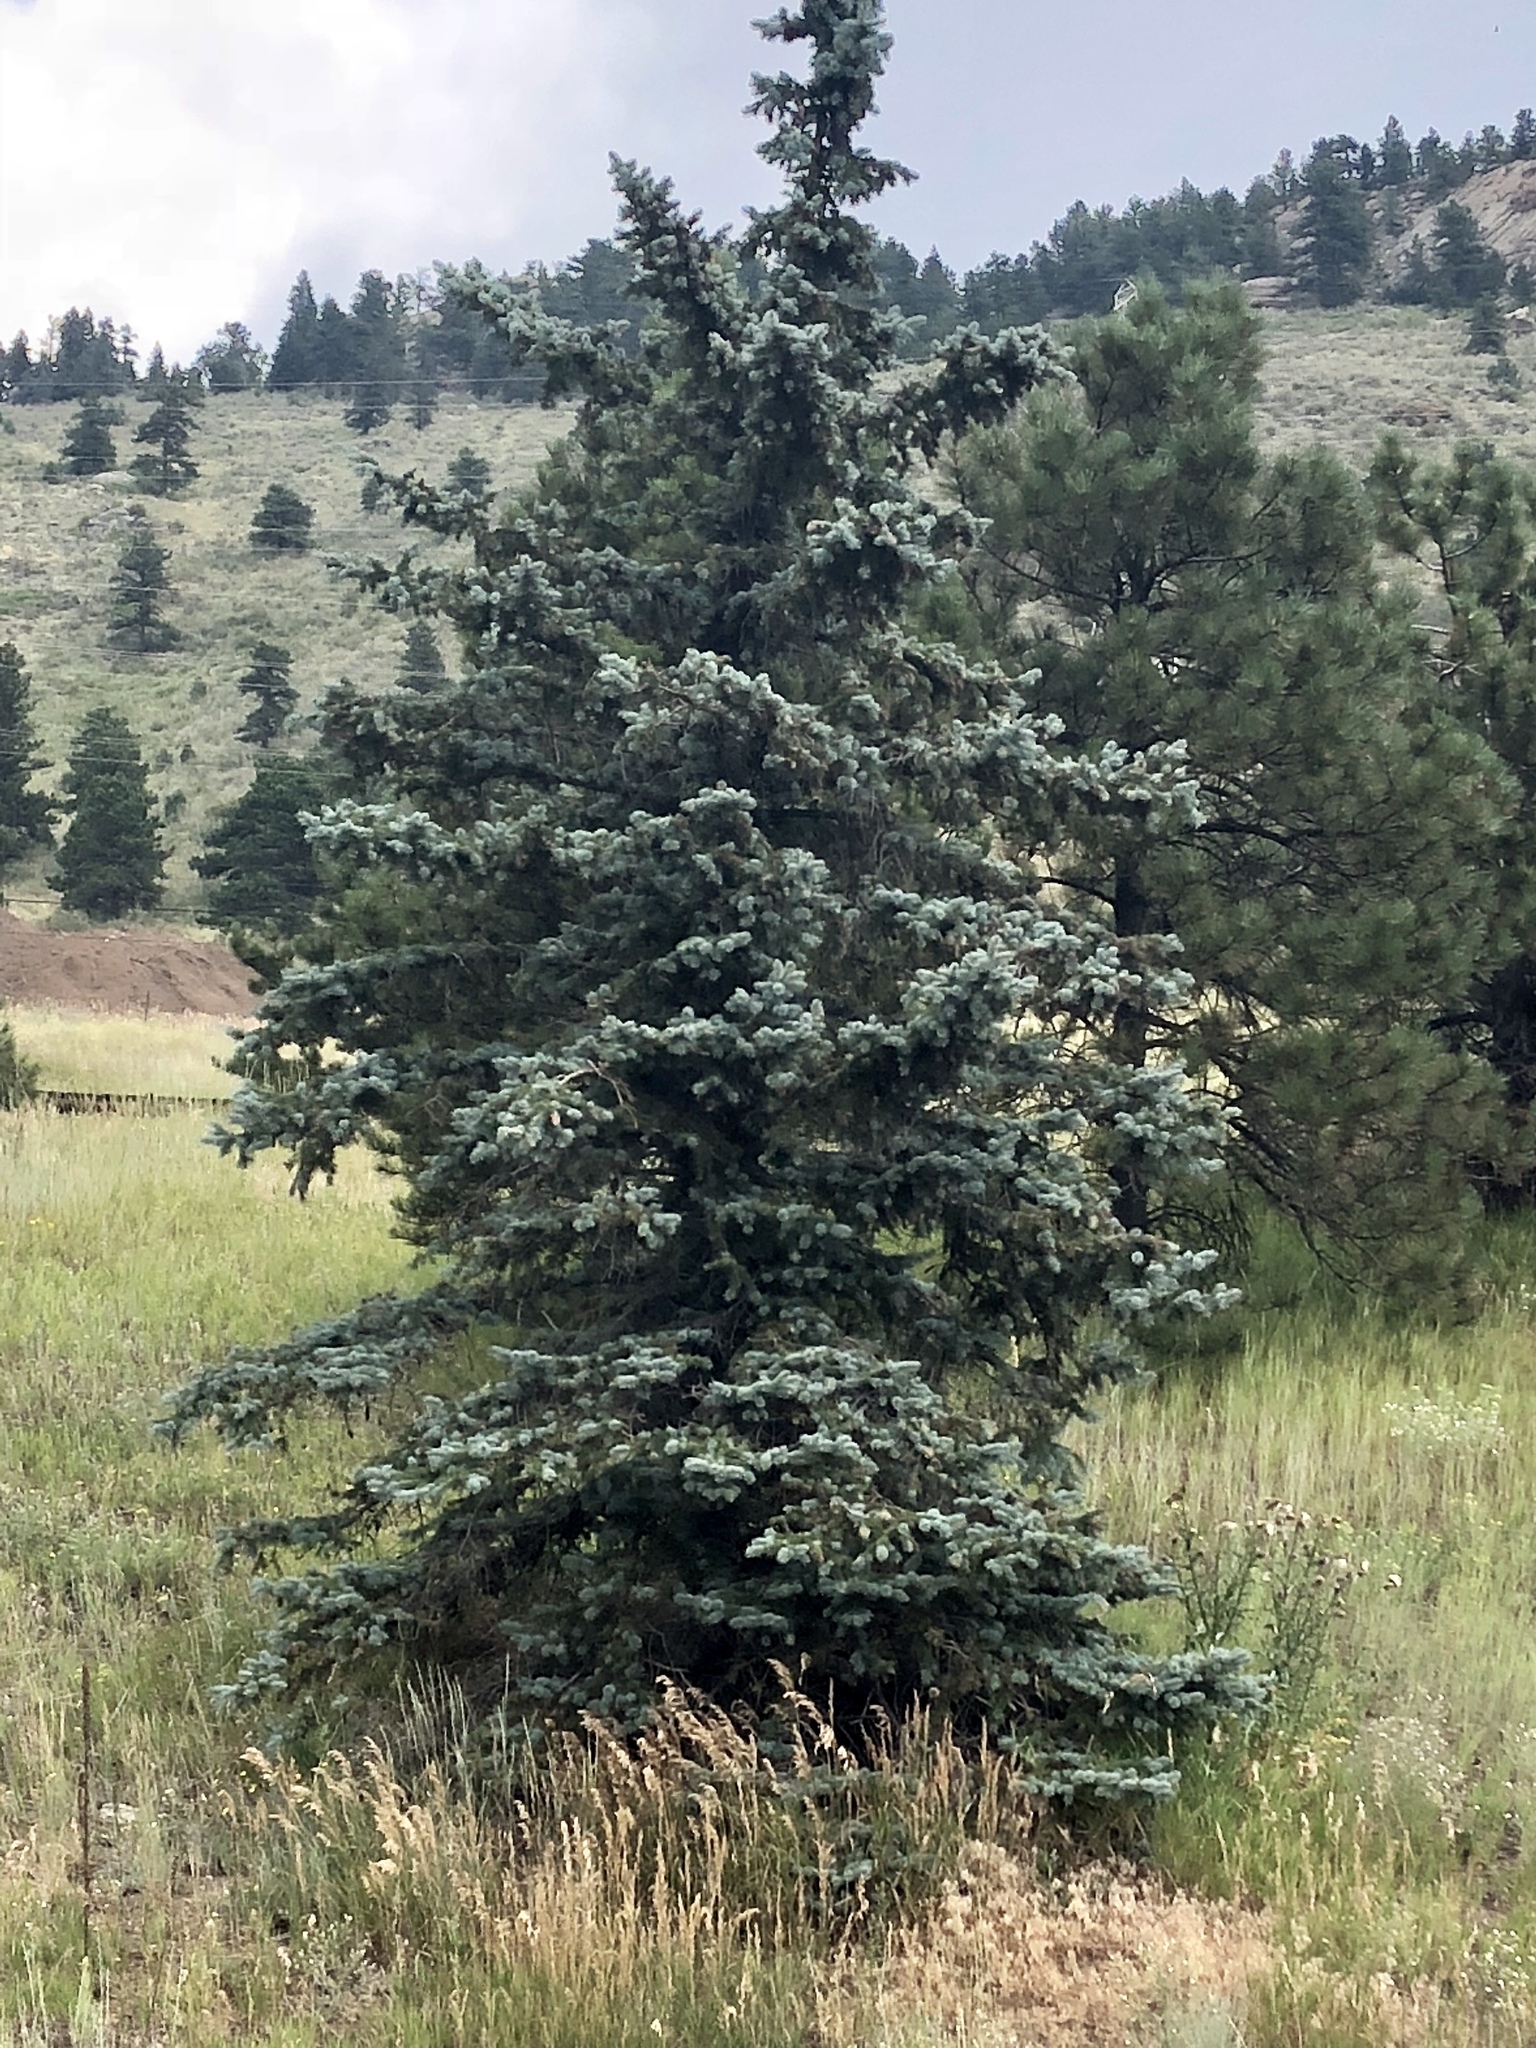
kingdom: Plantae
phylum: Tracheophyta
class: Pinopsida
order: Pinales
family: Pinaceae
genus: Picea
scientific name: Picea pungens
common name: Colorado spruce
